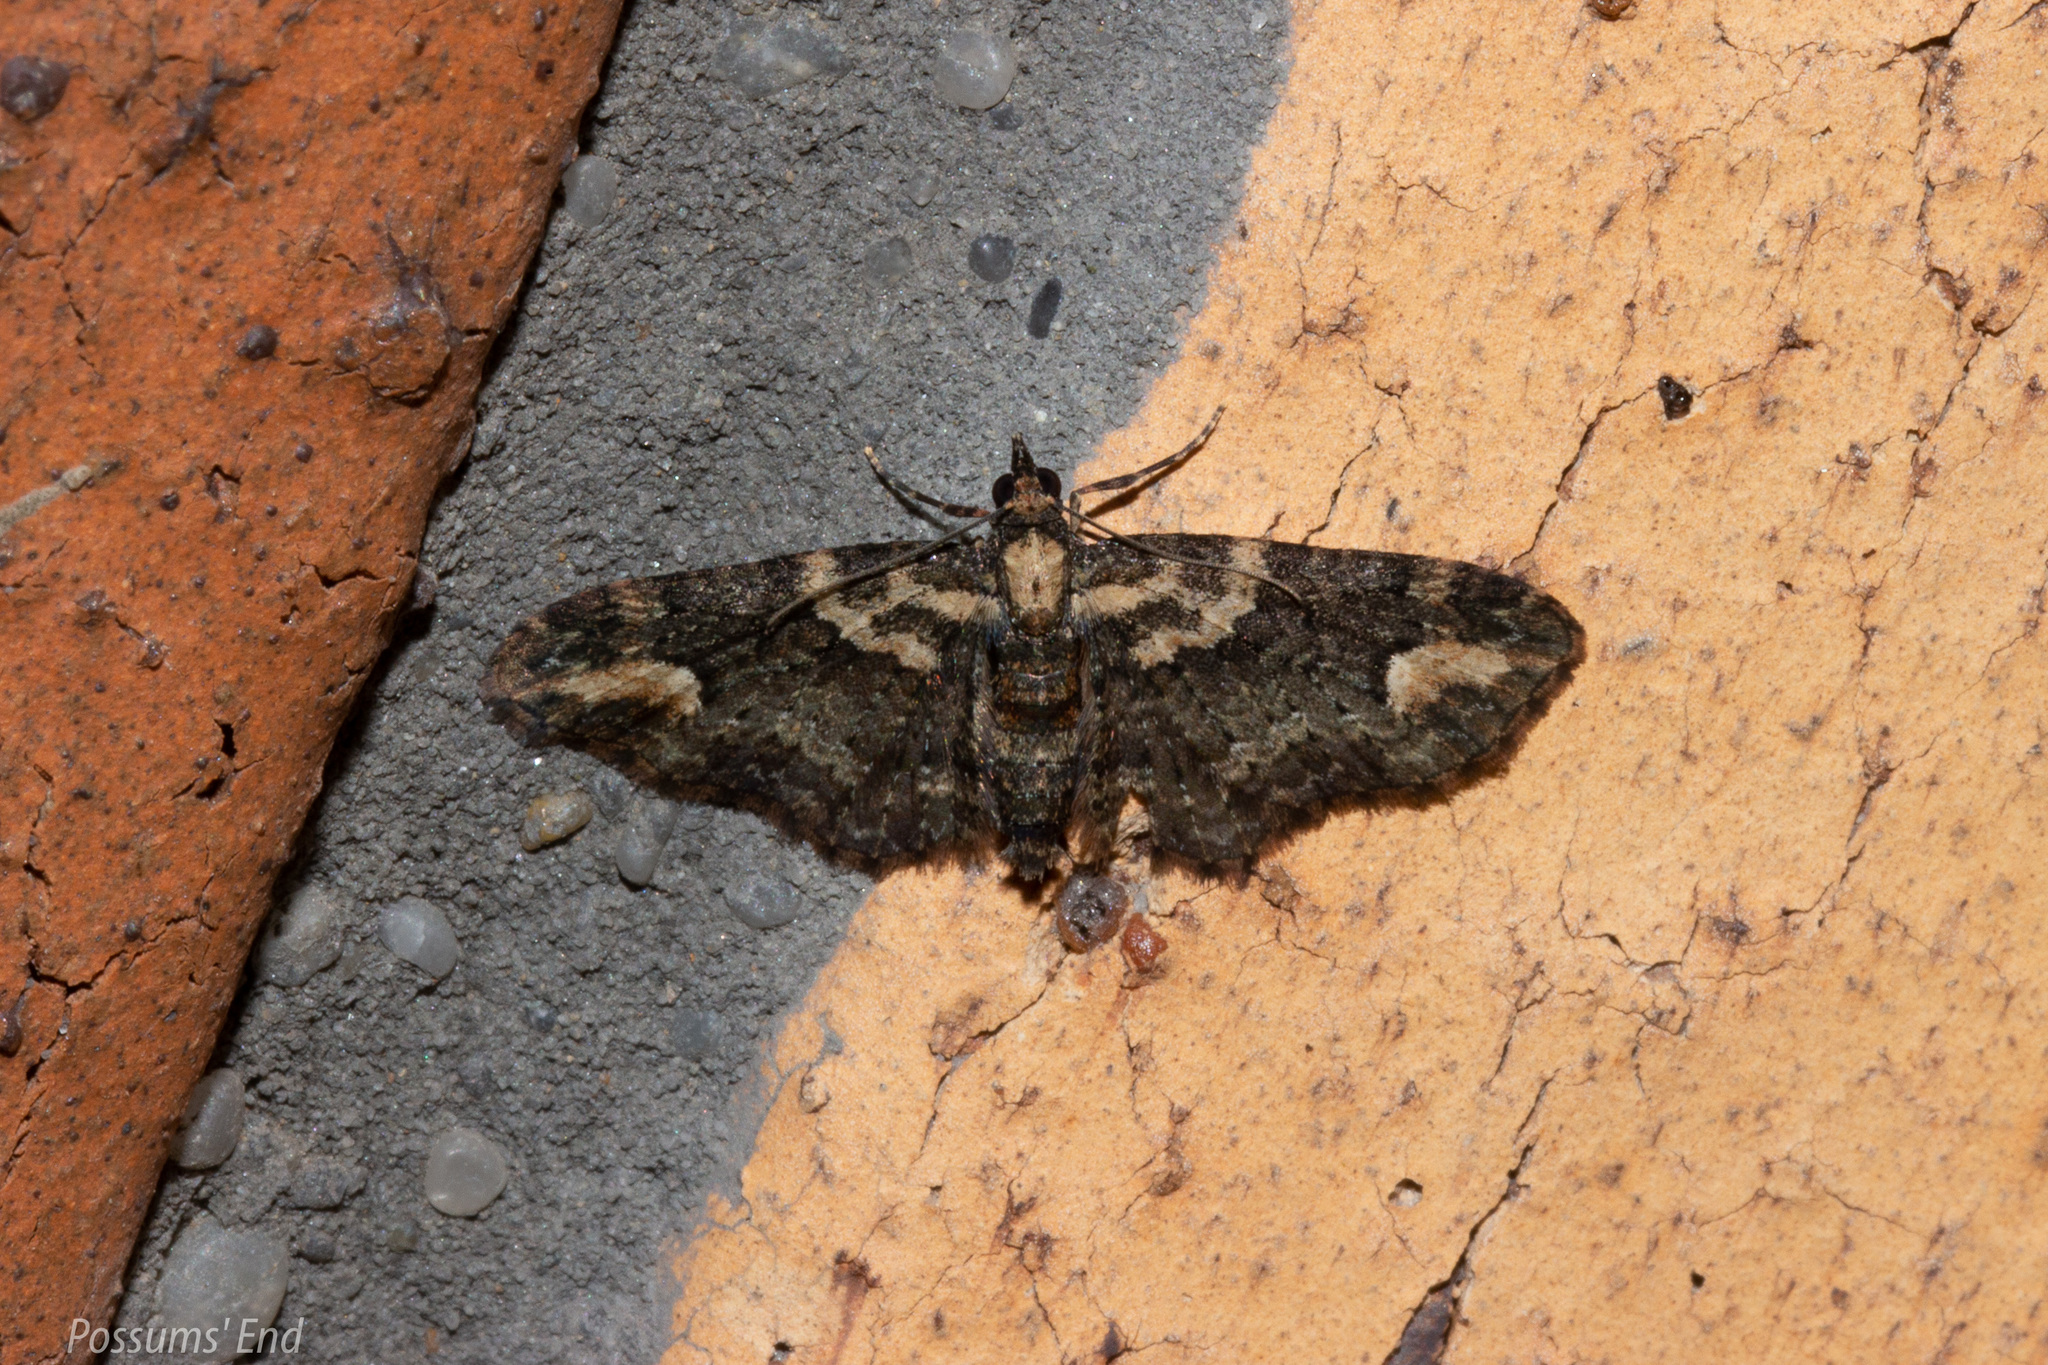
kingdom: Animalia
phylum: Arthropoda
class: Insecta
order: Lepidoptera
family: Geometridae
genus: Pasiphilodes
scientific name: Pasiphilodes testulata
